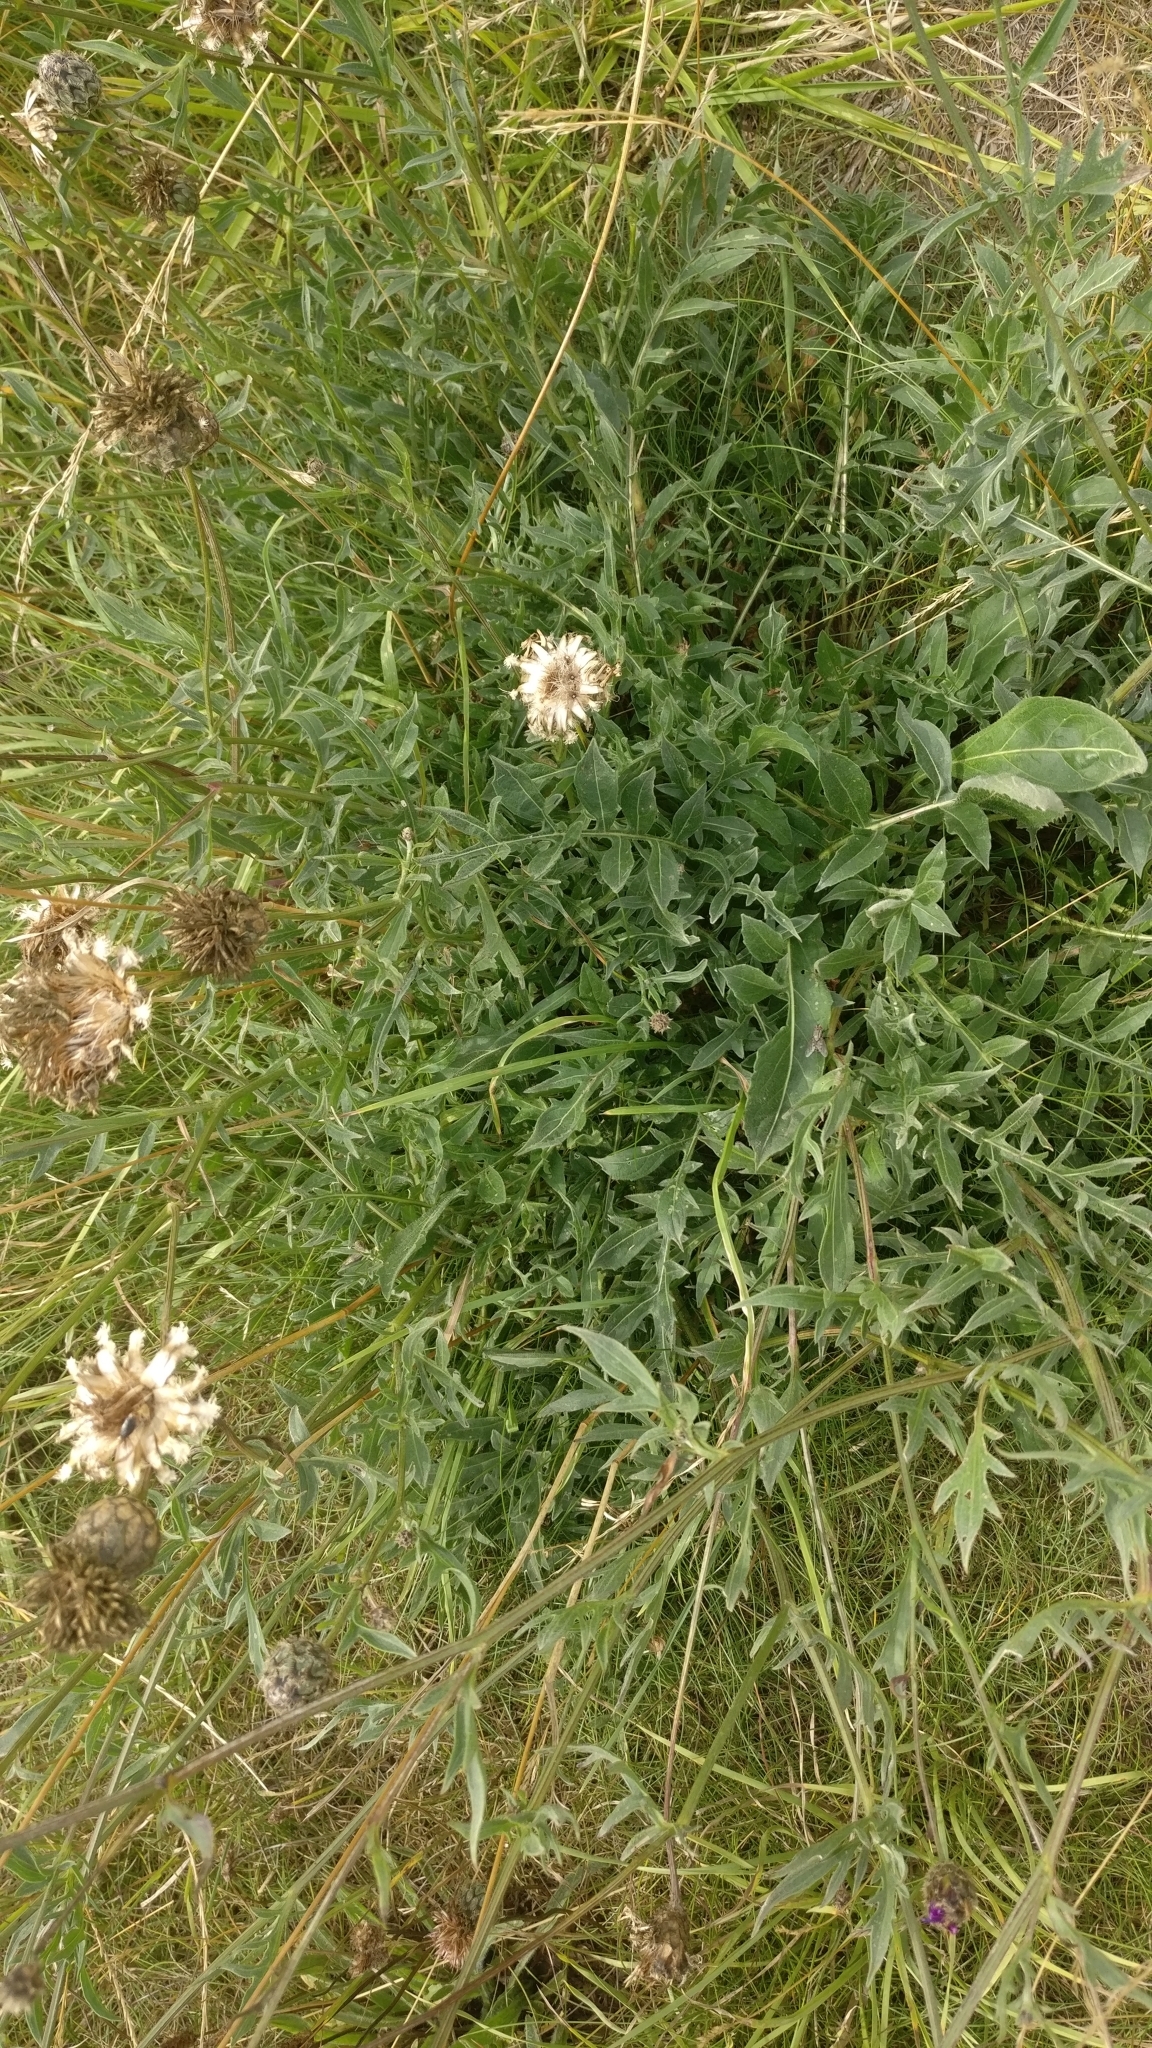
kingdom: Plantae
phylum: Tracheophyta
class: Magnoliopsida
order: Asterales
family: Asteraceae
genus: Centaurea
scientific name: Centaurea scabiosa
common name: Greater knapweed
